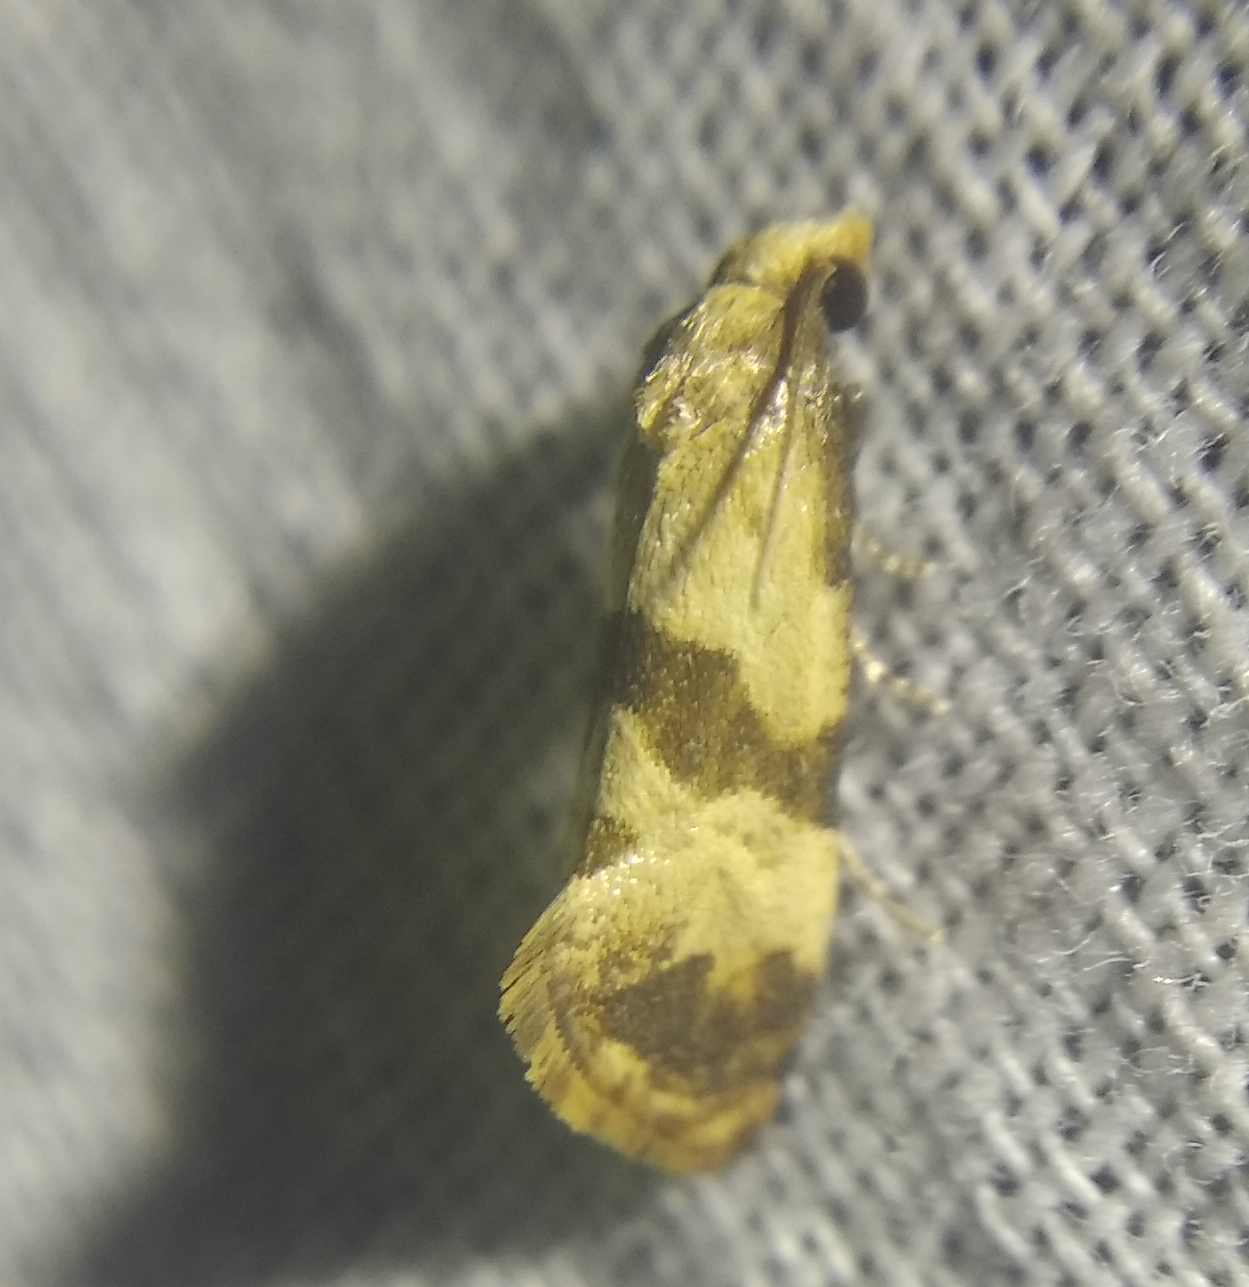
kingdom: Animalia
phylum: Arthropoda
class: Insecta
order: Lepidoptera
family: Tortricidae
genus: Phalonidia
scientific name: Phalonidia contractana
